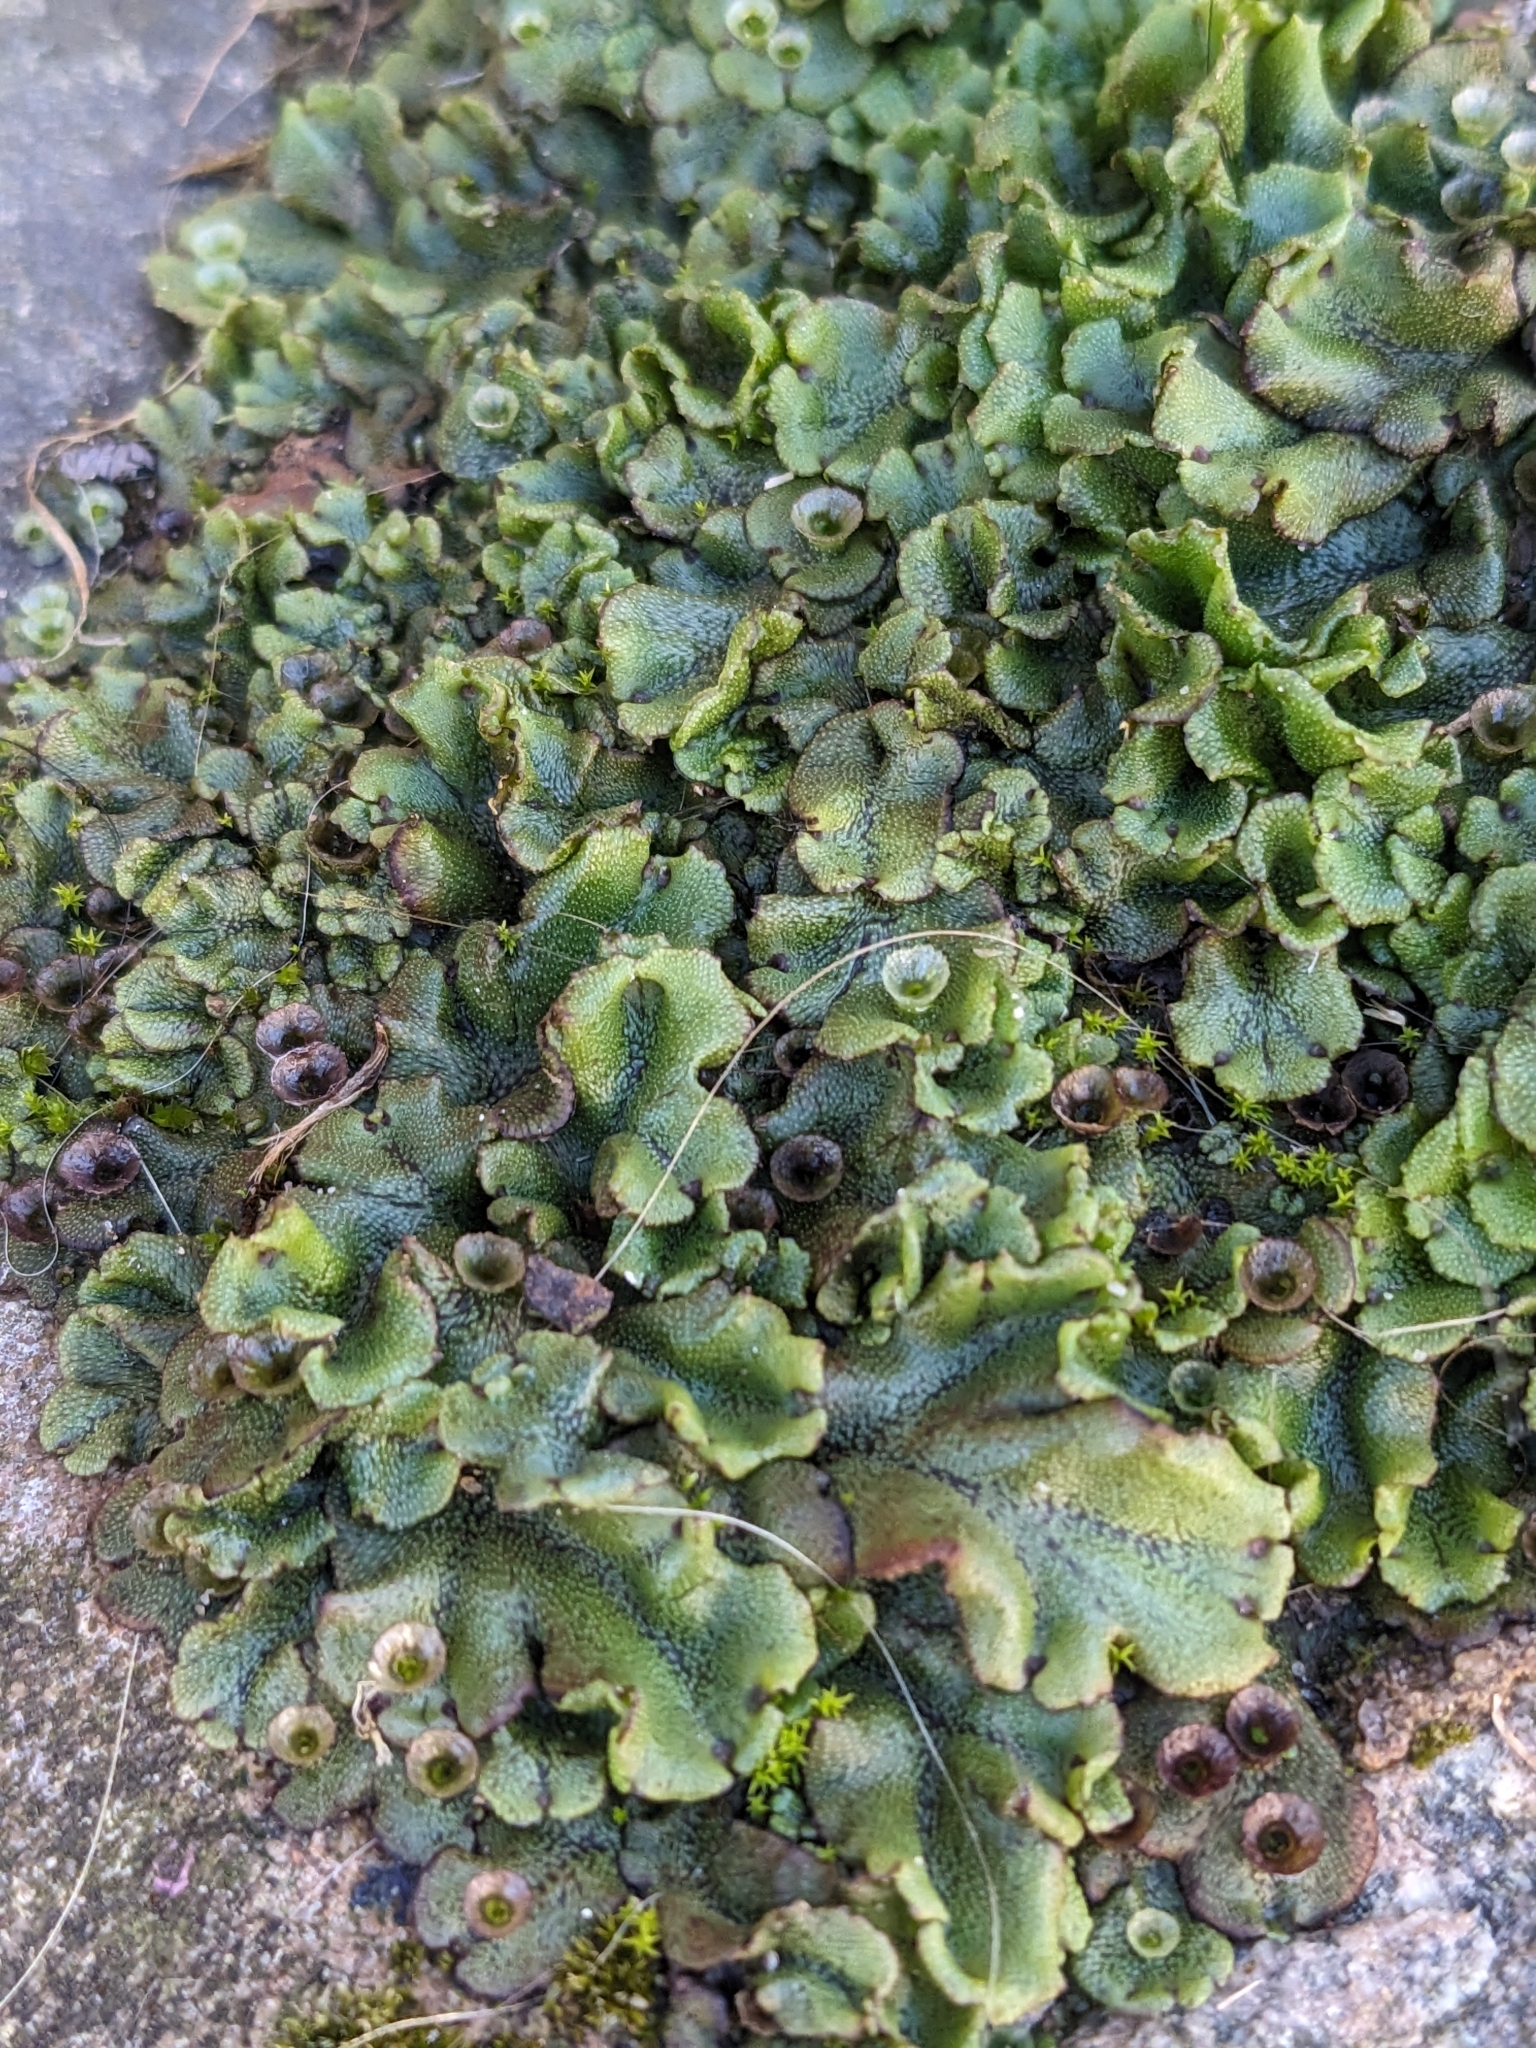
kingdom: Plantae
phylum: Marchantiophyta
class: Marchantiopsida
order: Marchantiales
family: Marchantiaceae
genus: Marchantia
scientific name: Marchantia polymorpha
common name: Common liverwort
